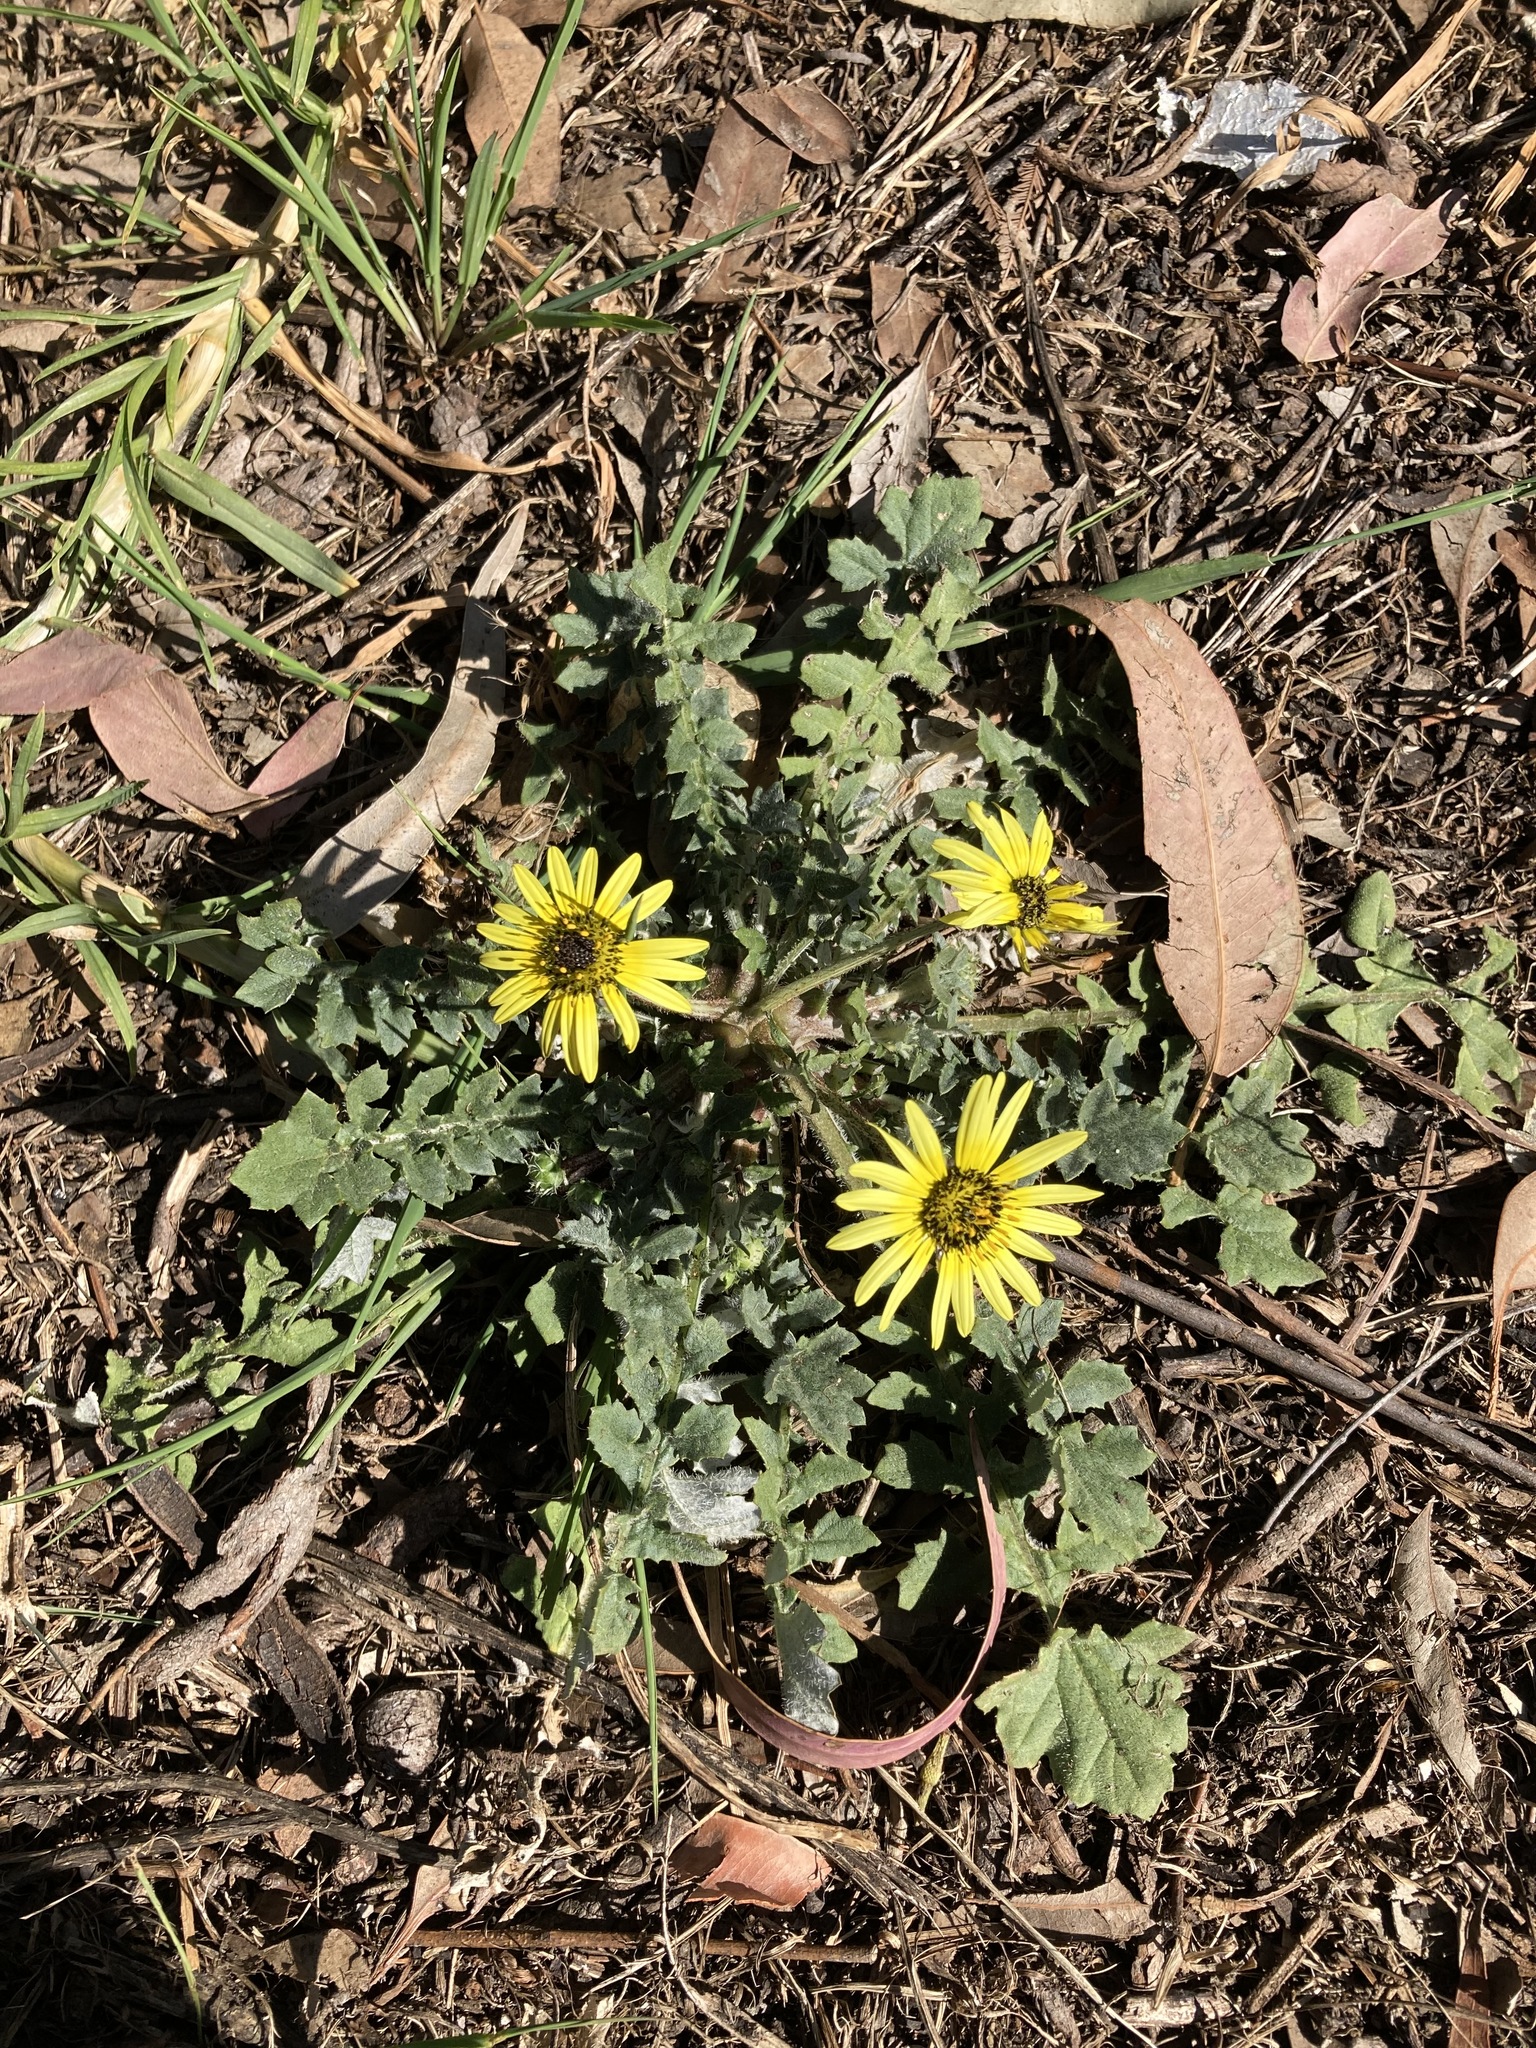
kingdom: Plantae
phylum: Tracheophyta
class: Magnoliopsida
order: Asterales
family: Asteraceae
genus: Arctotheca
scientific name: Arctotheca calendula
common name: Capeweed
